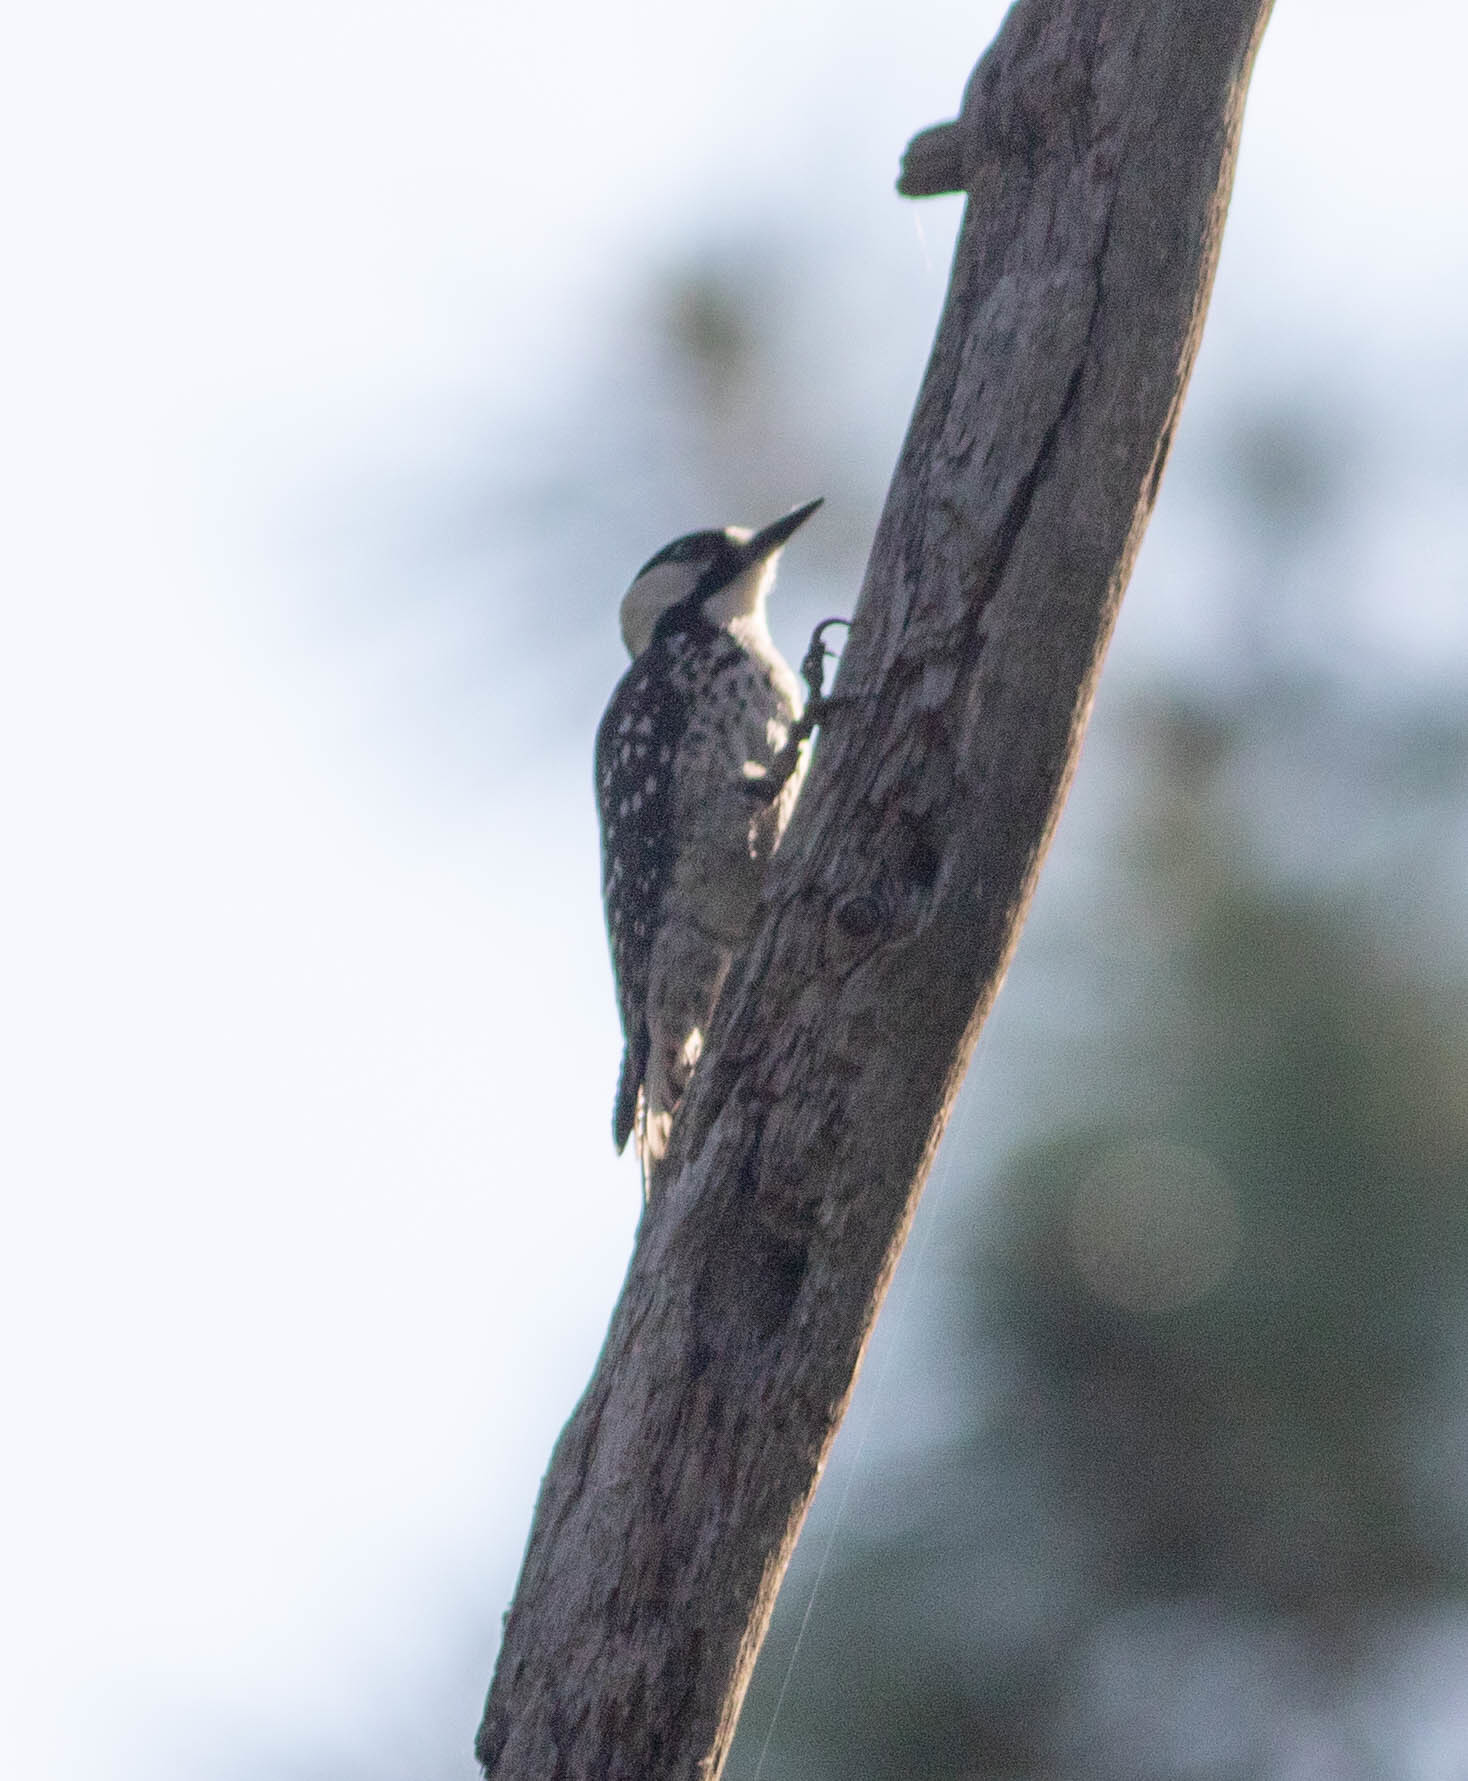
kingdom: Animalia
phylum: Chordata
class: Aves
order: Piciformes
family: Picidae
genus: Leuconotopicus
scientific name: Leuconotopicus borealis
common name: Red-cockaded woodpecker
